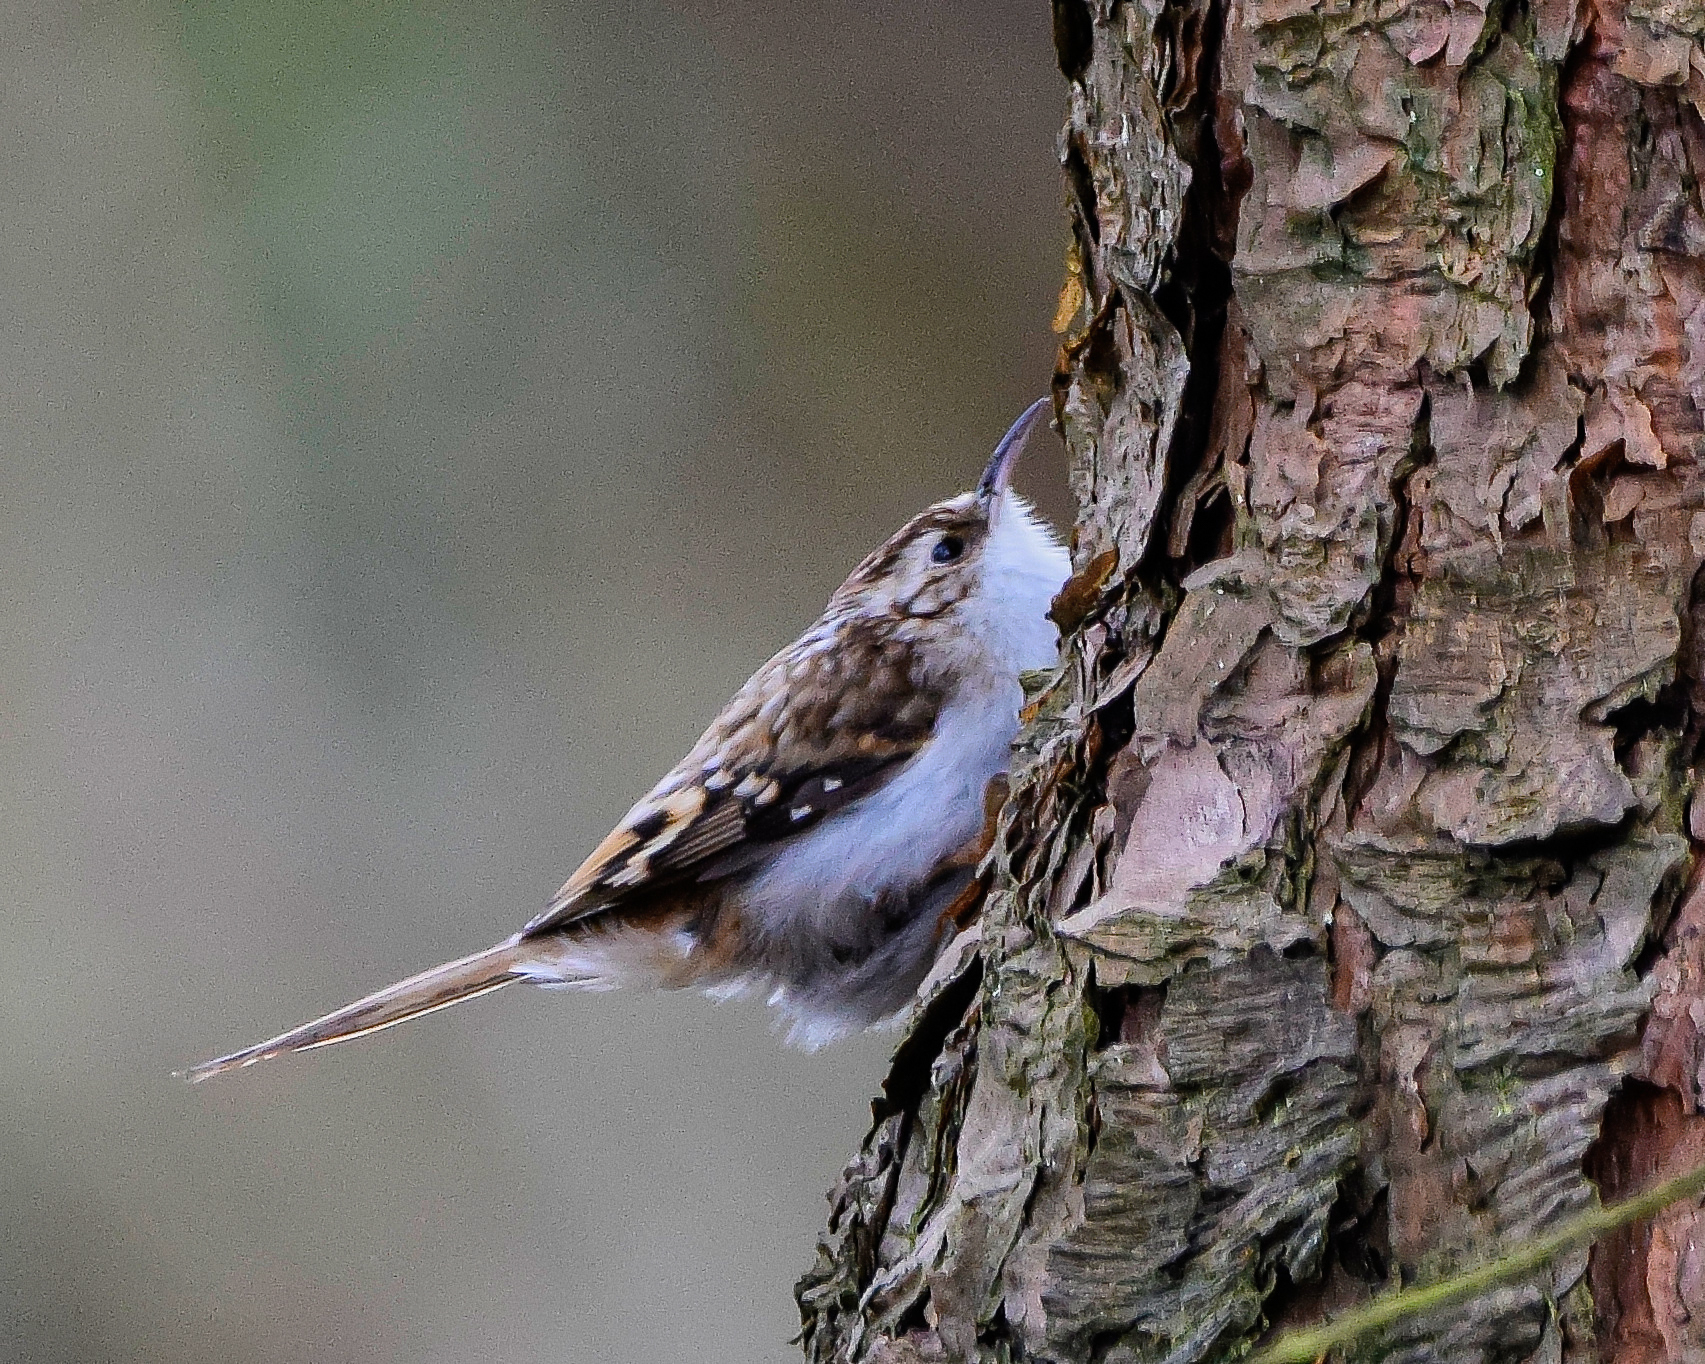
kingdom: Animalia
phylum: Chordata
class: Aves
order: Passeriformes
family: Certhiidae
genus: Certhia
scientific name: Certhia familiaris
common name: Eurasian treecreeper
